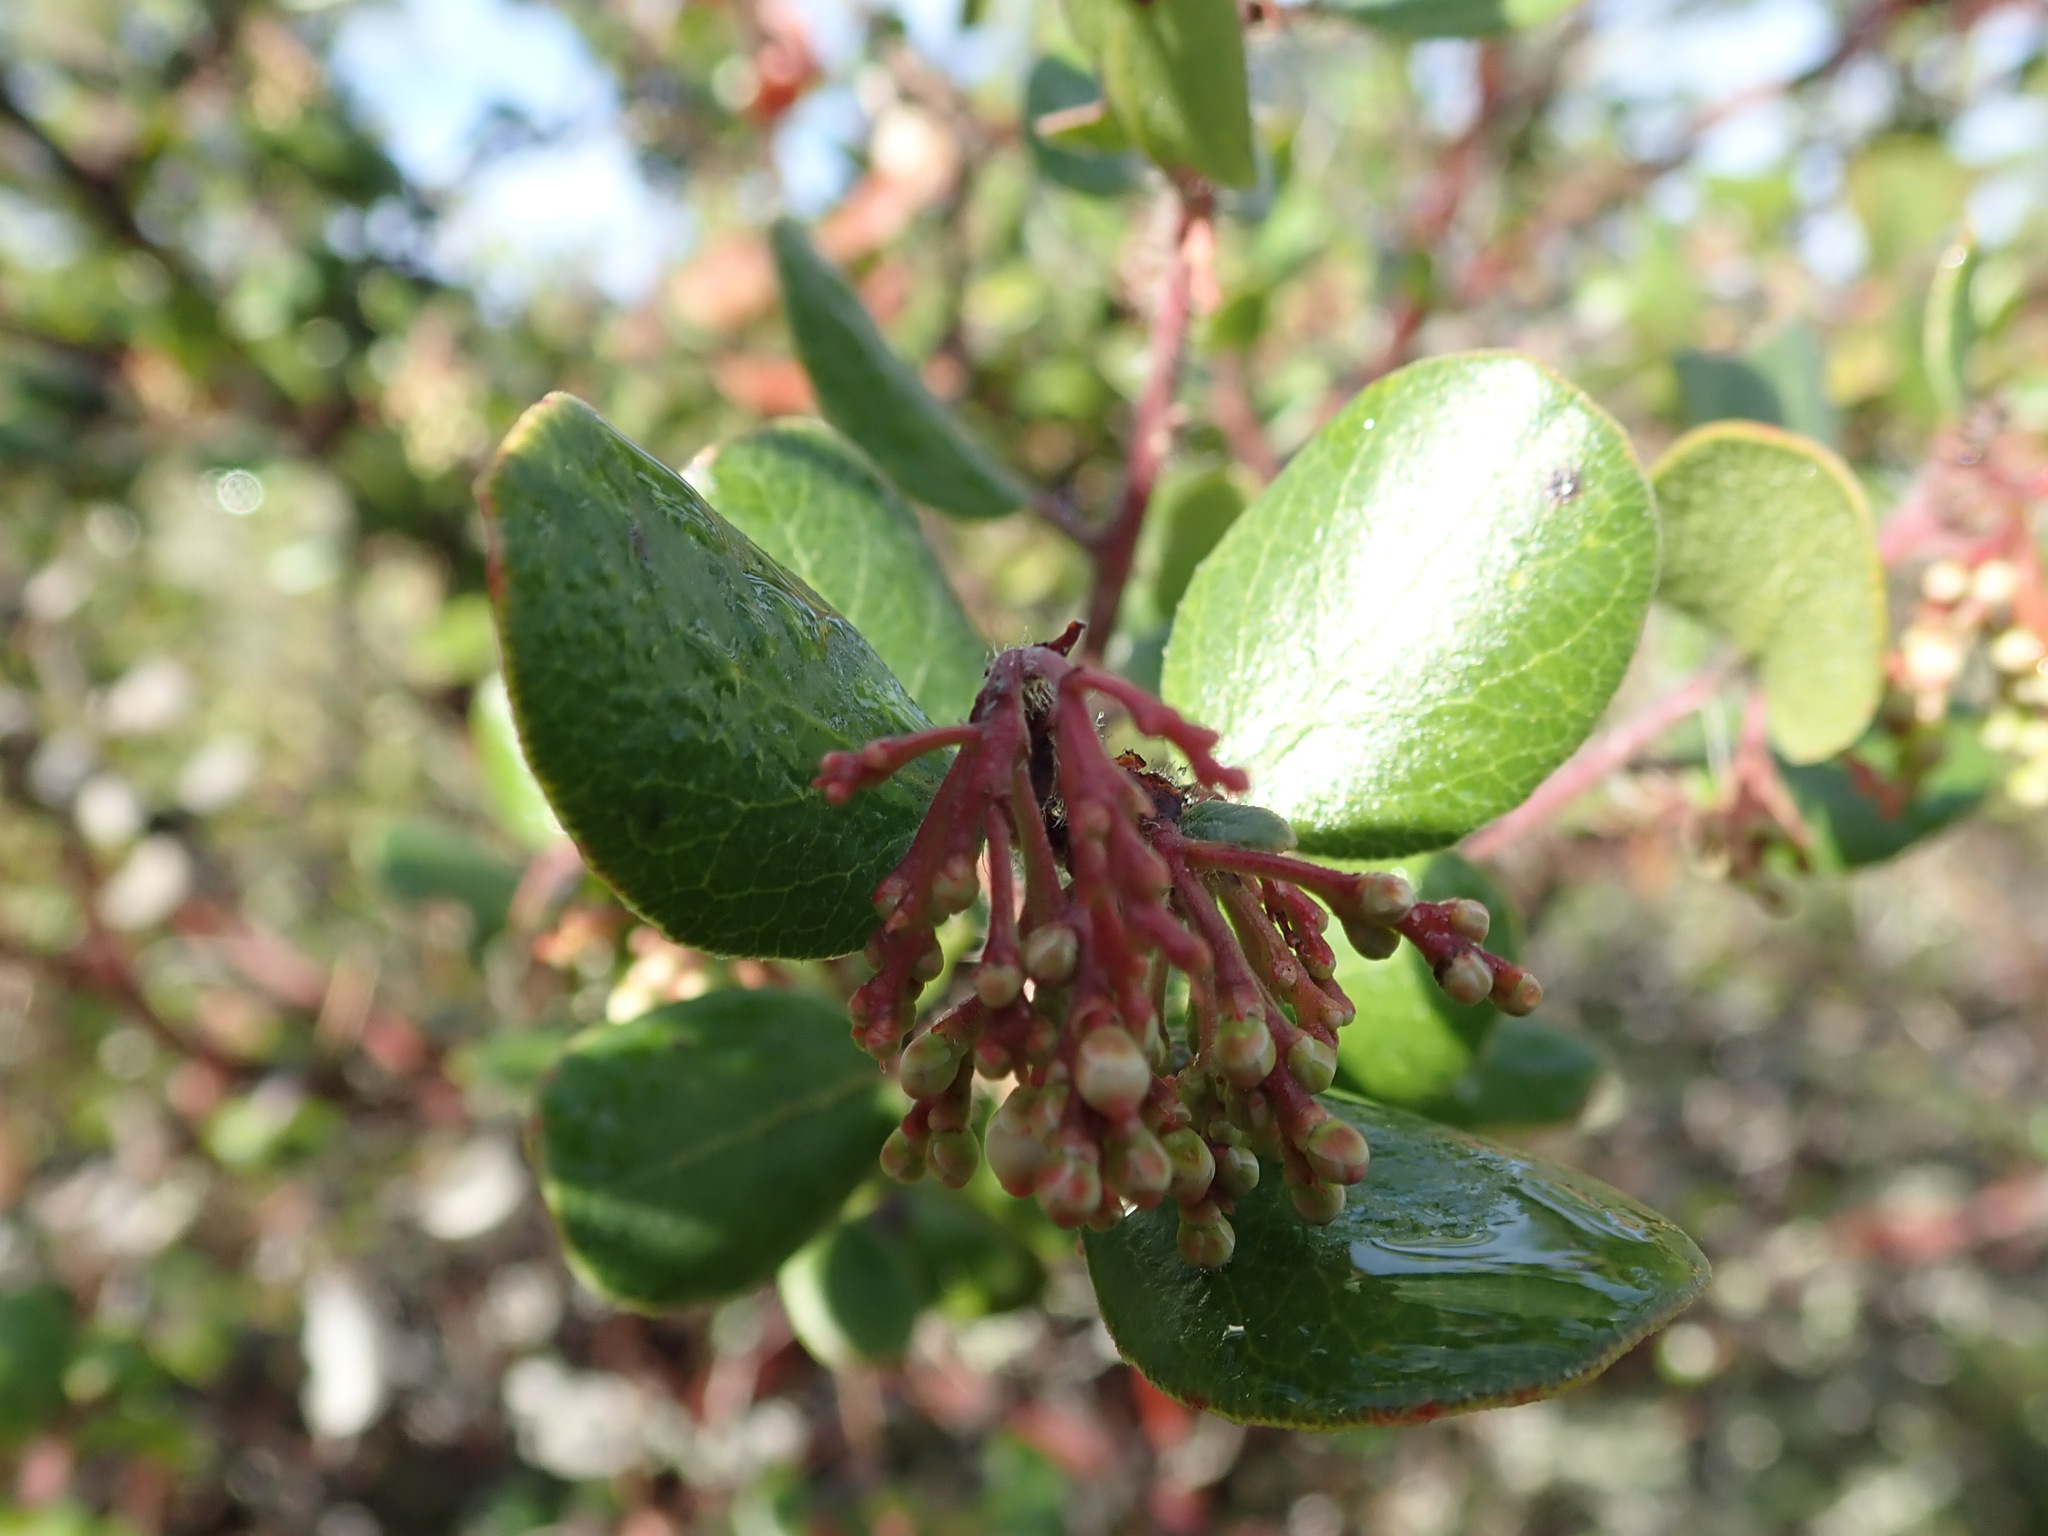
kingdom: Plantae
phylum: Tracheophyta
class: Magnoliopsida
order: Ericales
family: Ericaceae
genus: Arctostaphylos
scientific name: Arctostaphylos nummularia
